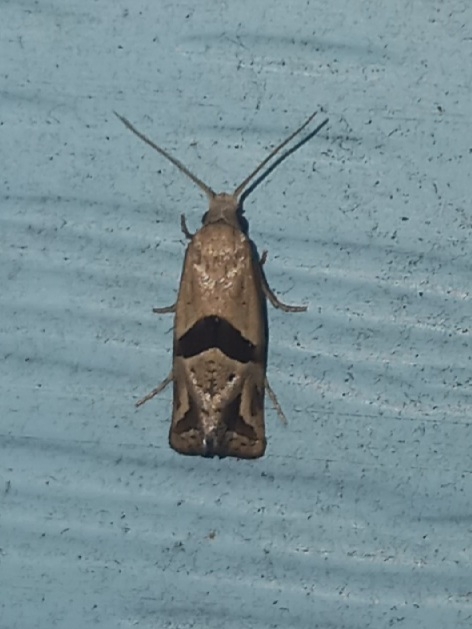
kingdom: Animalia
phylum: Arthropoda
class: Insecta
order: Lepidoptera
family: Tortricidae
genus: Eugnosta
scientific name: Eugnosta sartana
